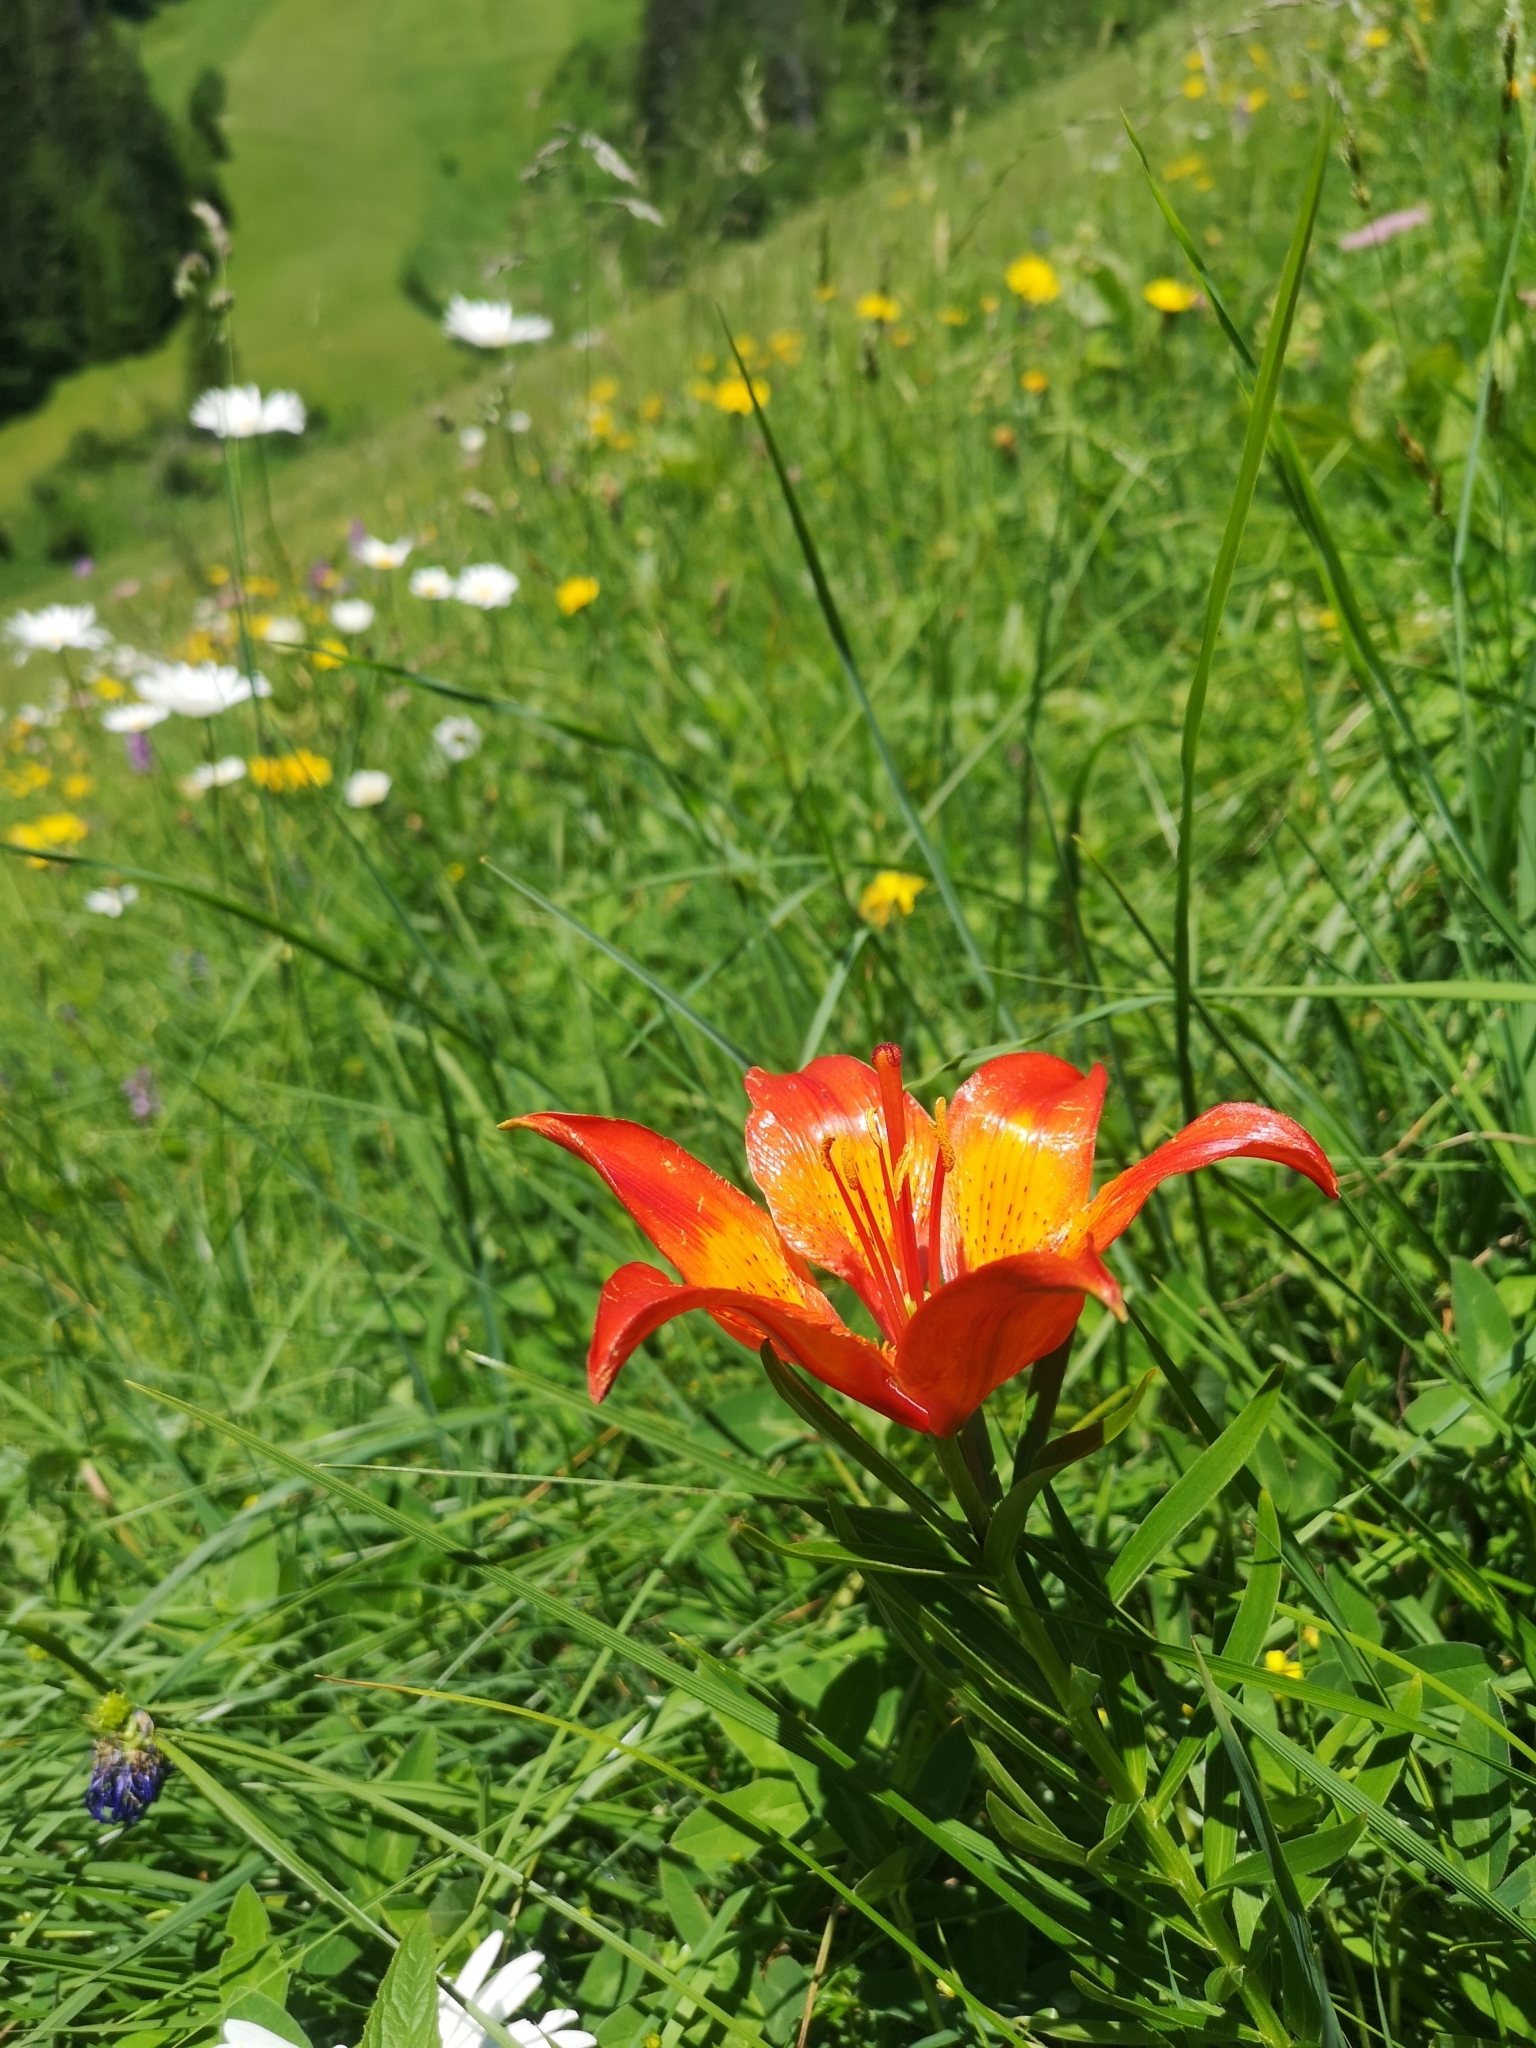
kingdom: Plantae
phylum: Tracheophyta
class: Liliopsida
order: Liliales
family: Liliaceae
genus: Lilium
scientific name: Lilium bulbiferum
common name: Orange lily
